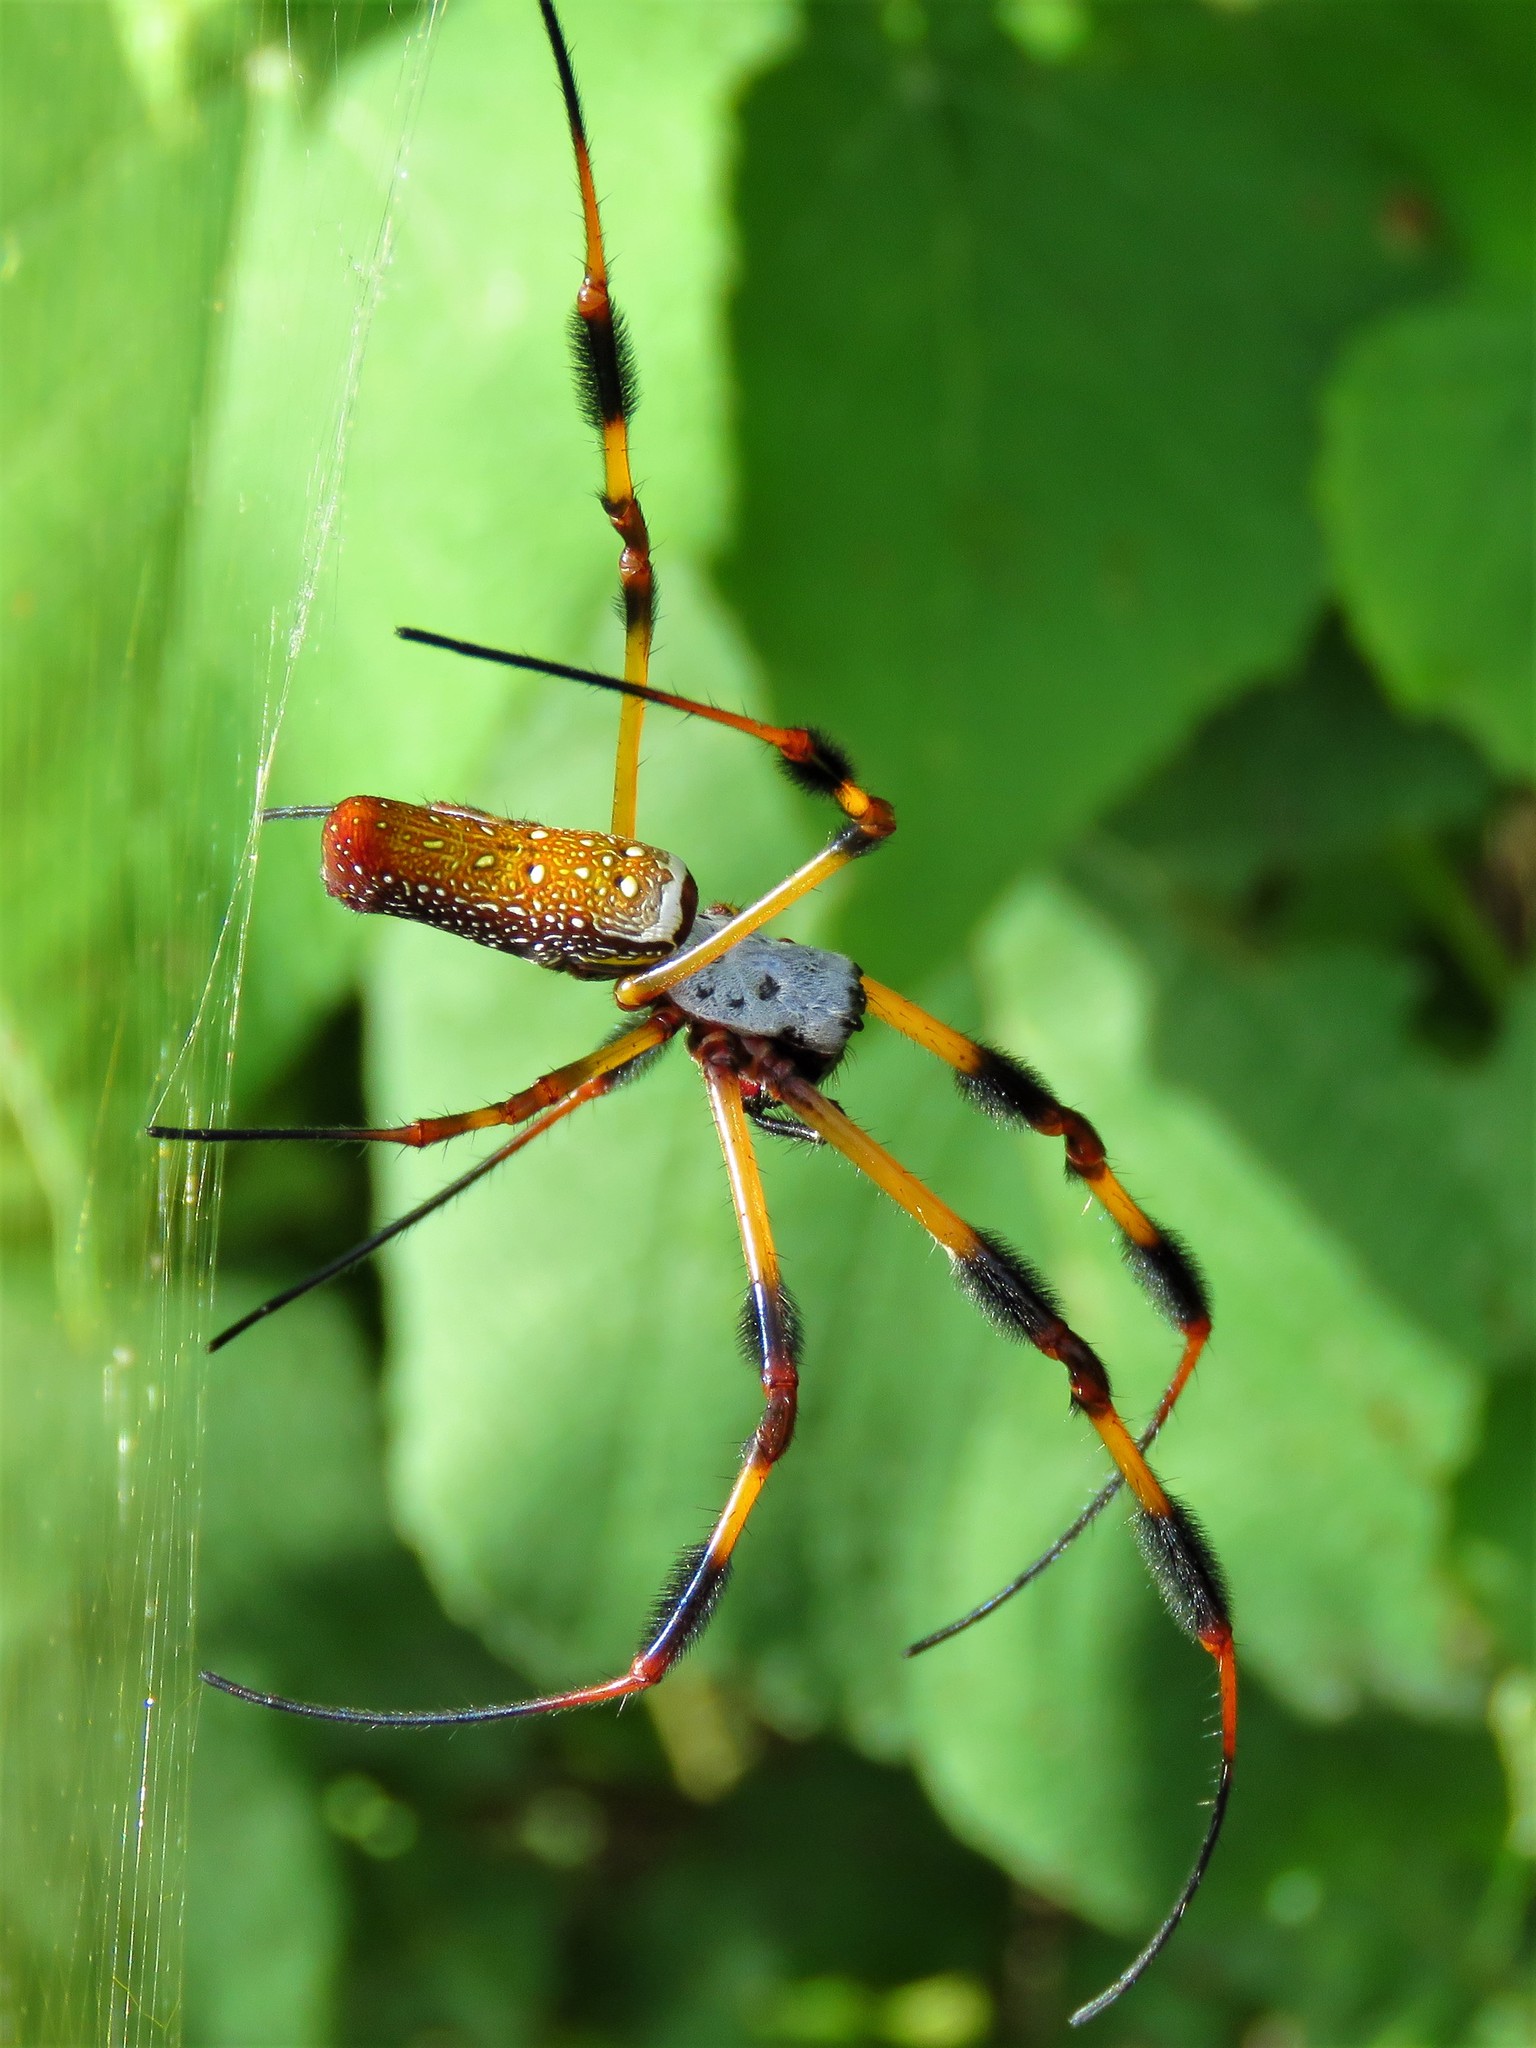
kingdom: Animalia
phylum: Arthropoda
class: Arachnida
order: Araneae
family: Araneidae
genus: Trichonephila
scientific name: Trichonephila clavipes
